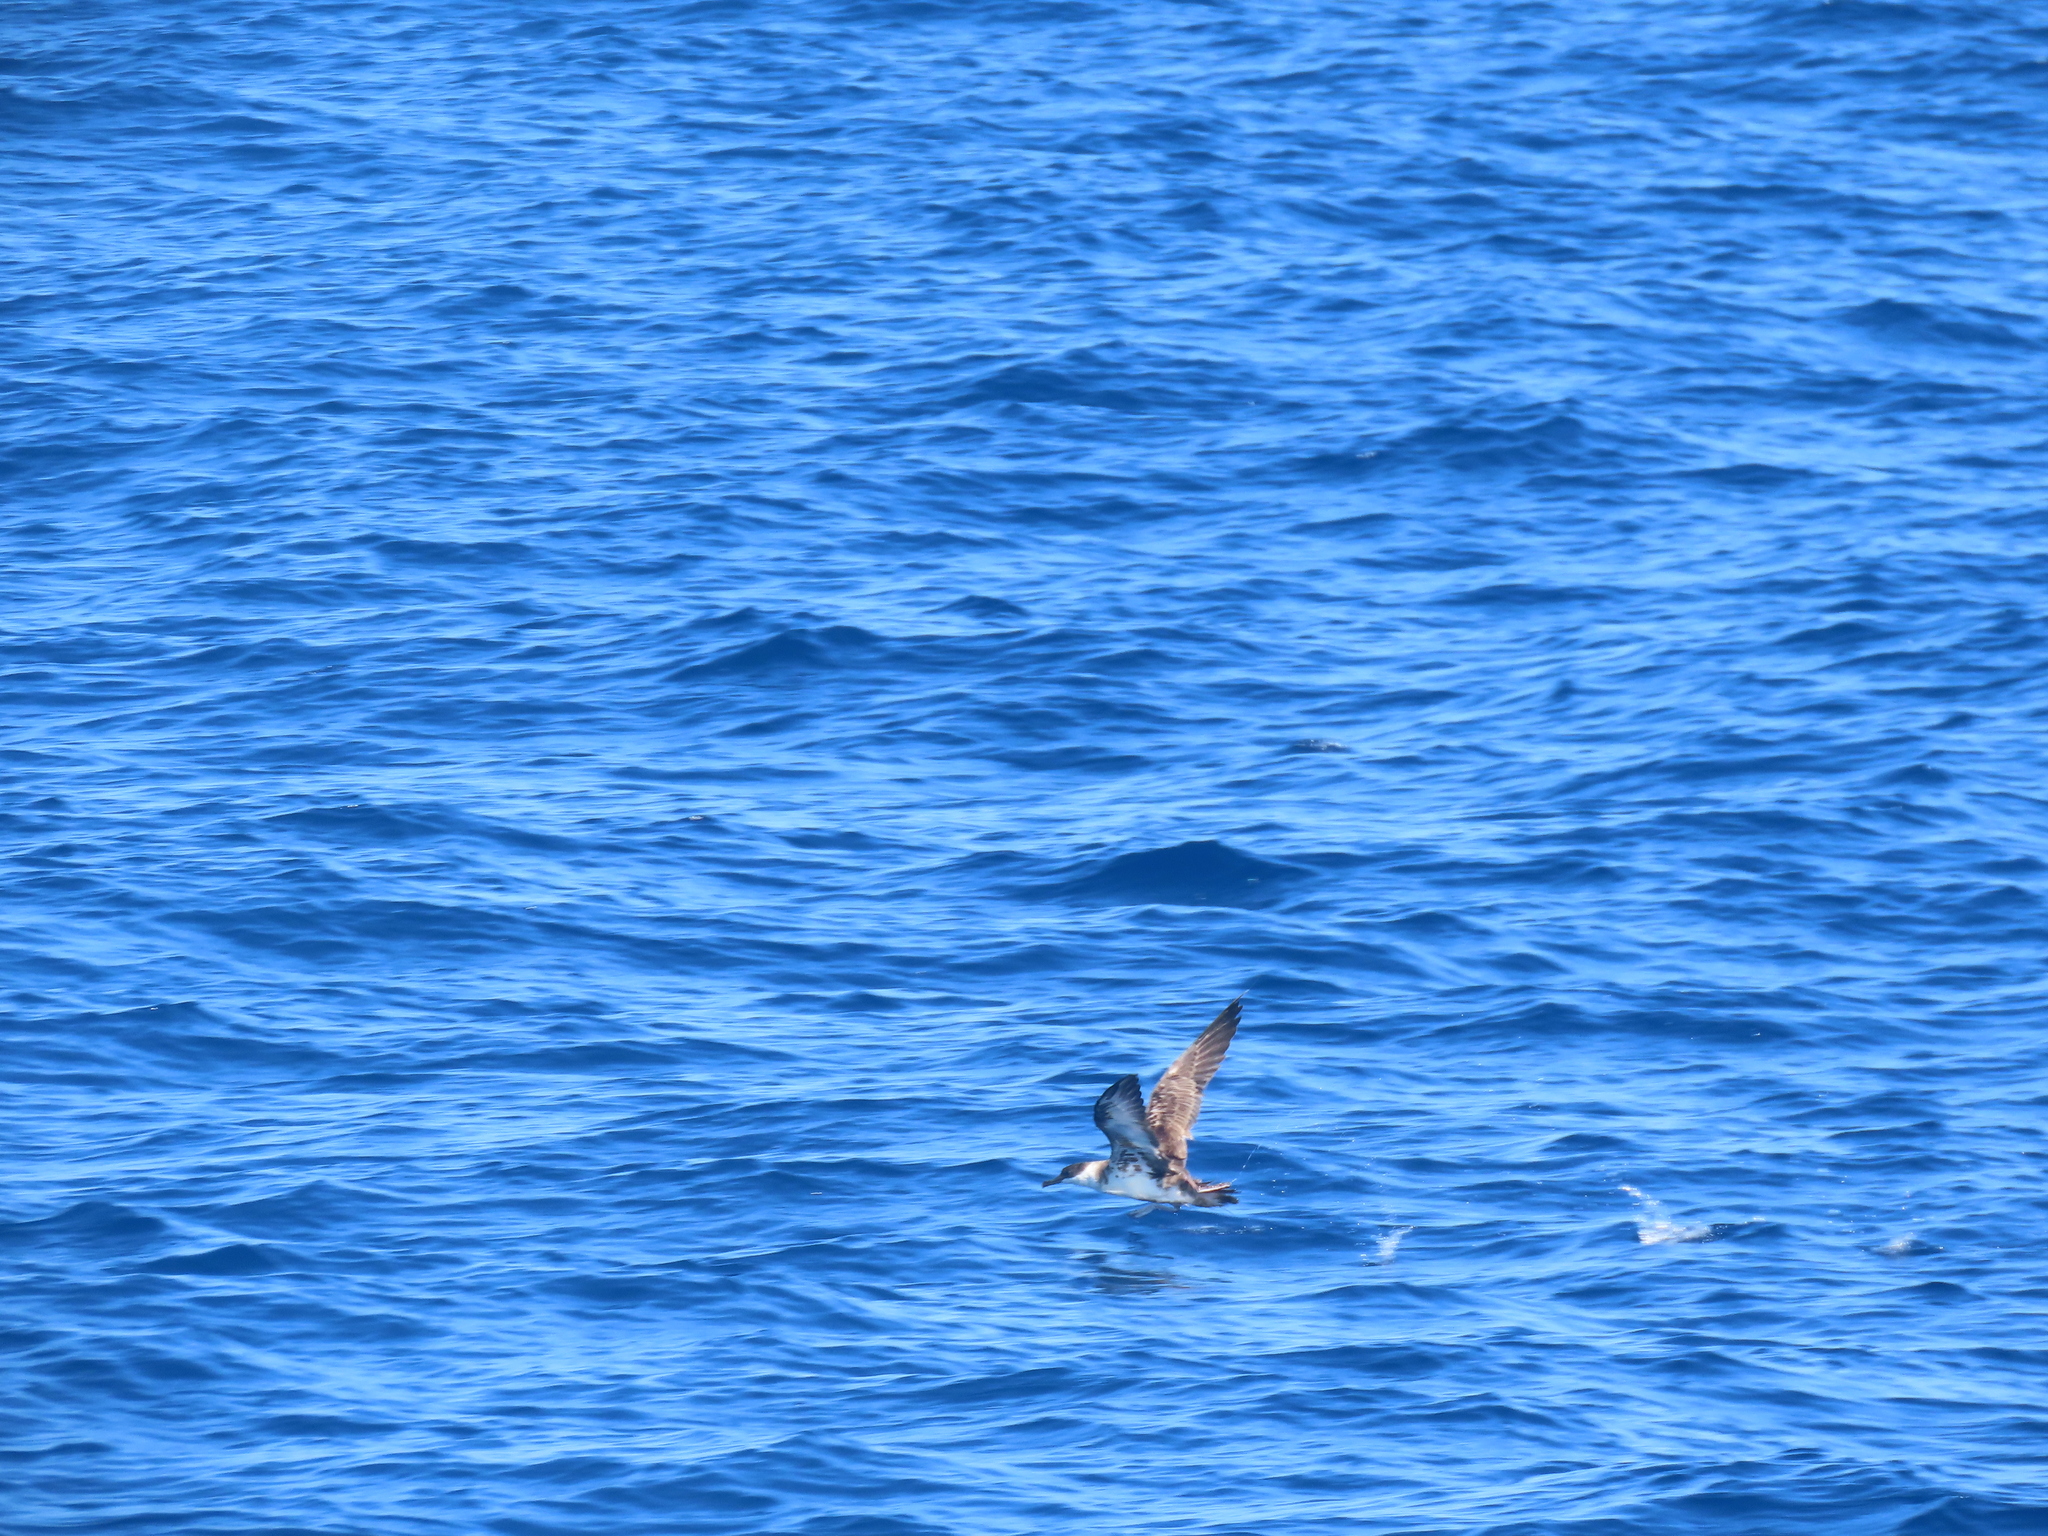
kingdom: Animalia
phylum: Chordata
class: Aves
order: Procellariiformes
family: Procellariidae
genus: Puffinus
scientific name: Puffinus gravis
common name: Great shearwater
